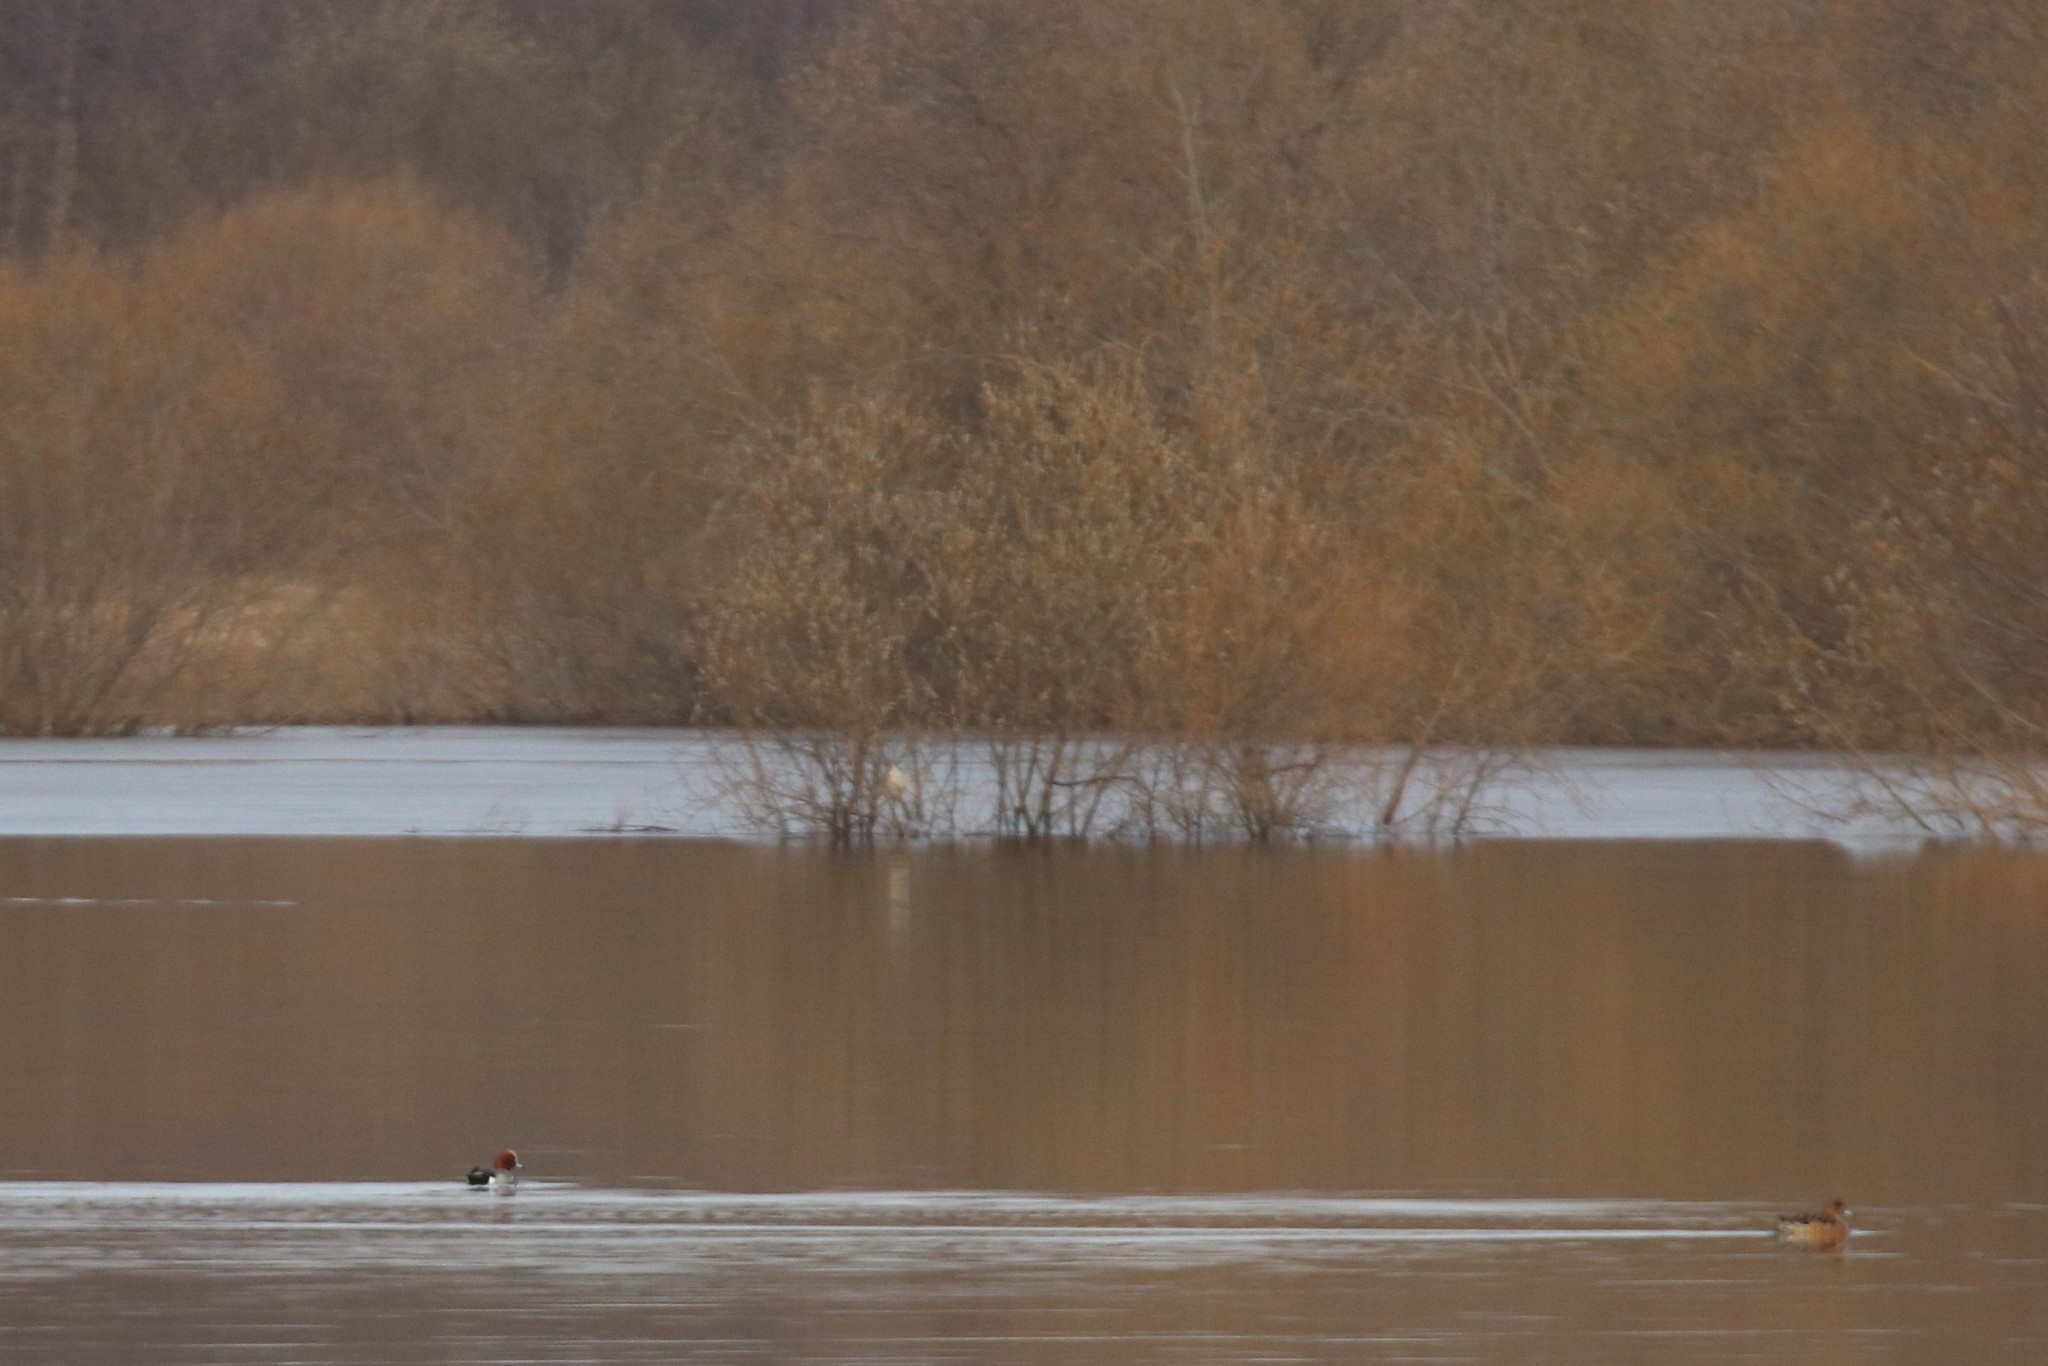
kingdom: Animalia
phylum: Chordata
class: Aves
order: Anseriformes
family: Anatidae
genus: Mareca
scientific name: Mareca penelope
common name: Eurasian wigeon
